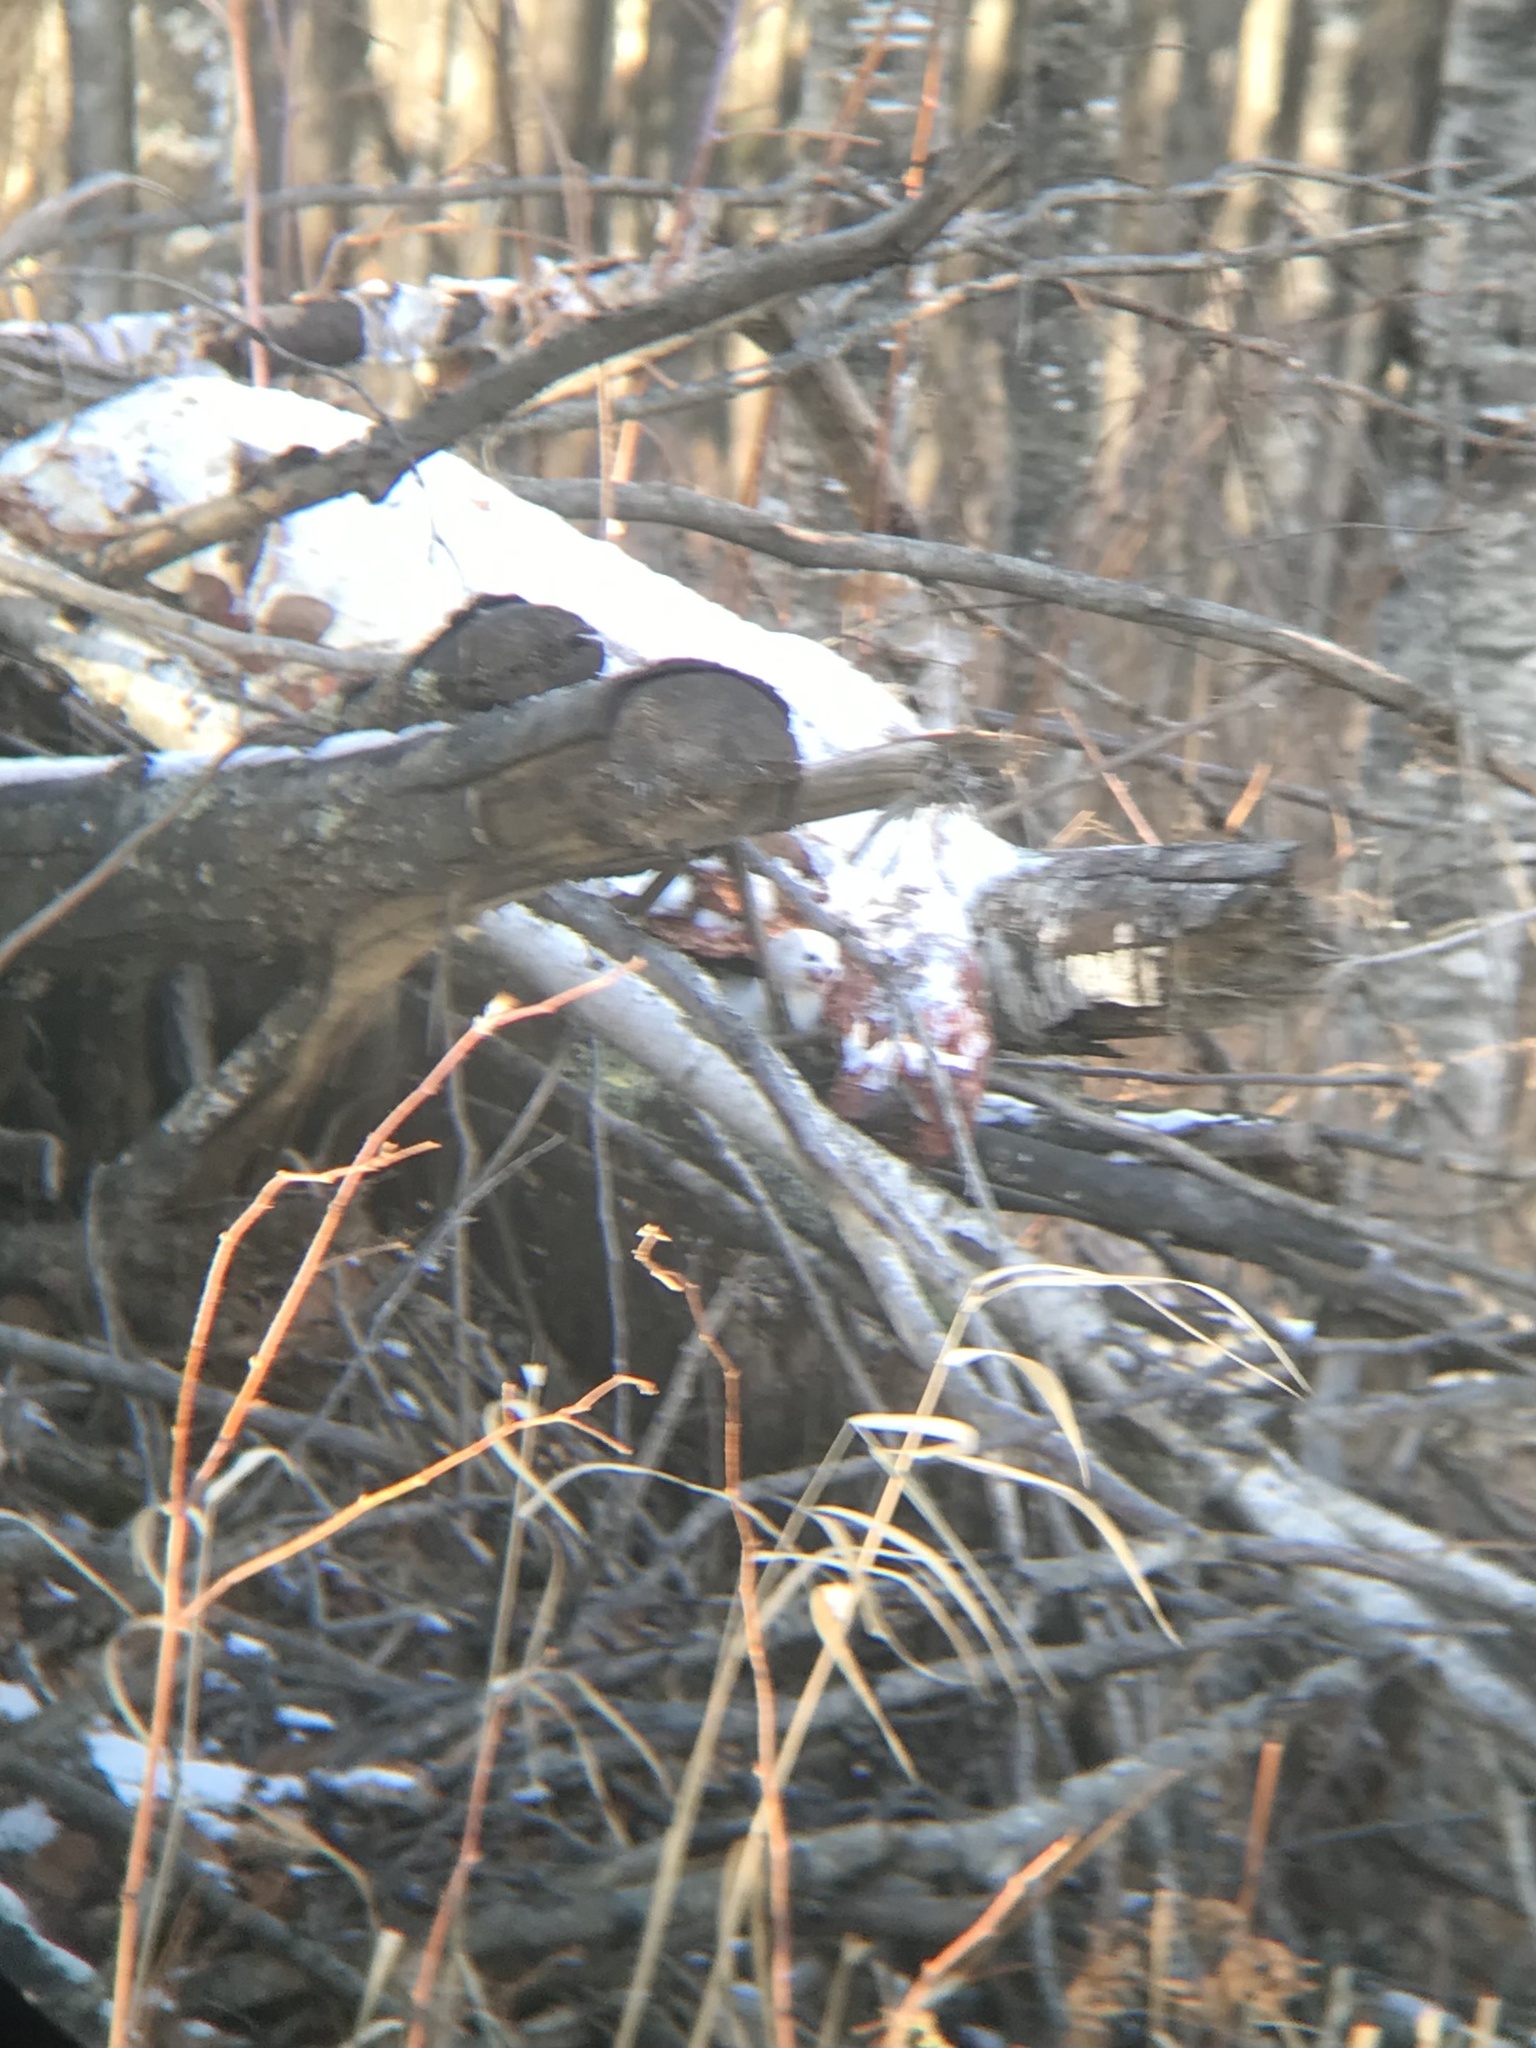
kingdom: Animalia
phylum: Chordata
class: Mammalia
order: Carnivora
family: Mustelidae
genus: Mustela
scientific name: Mustela erminea
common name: Stoat
